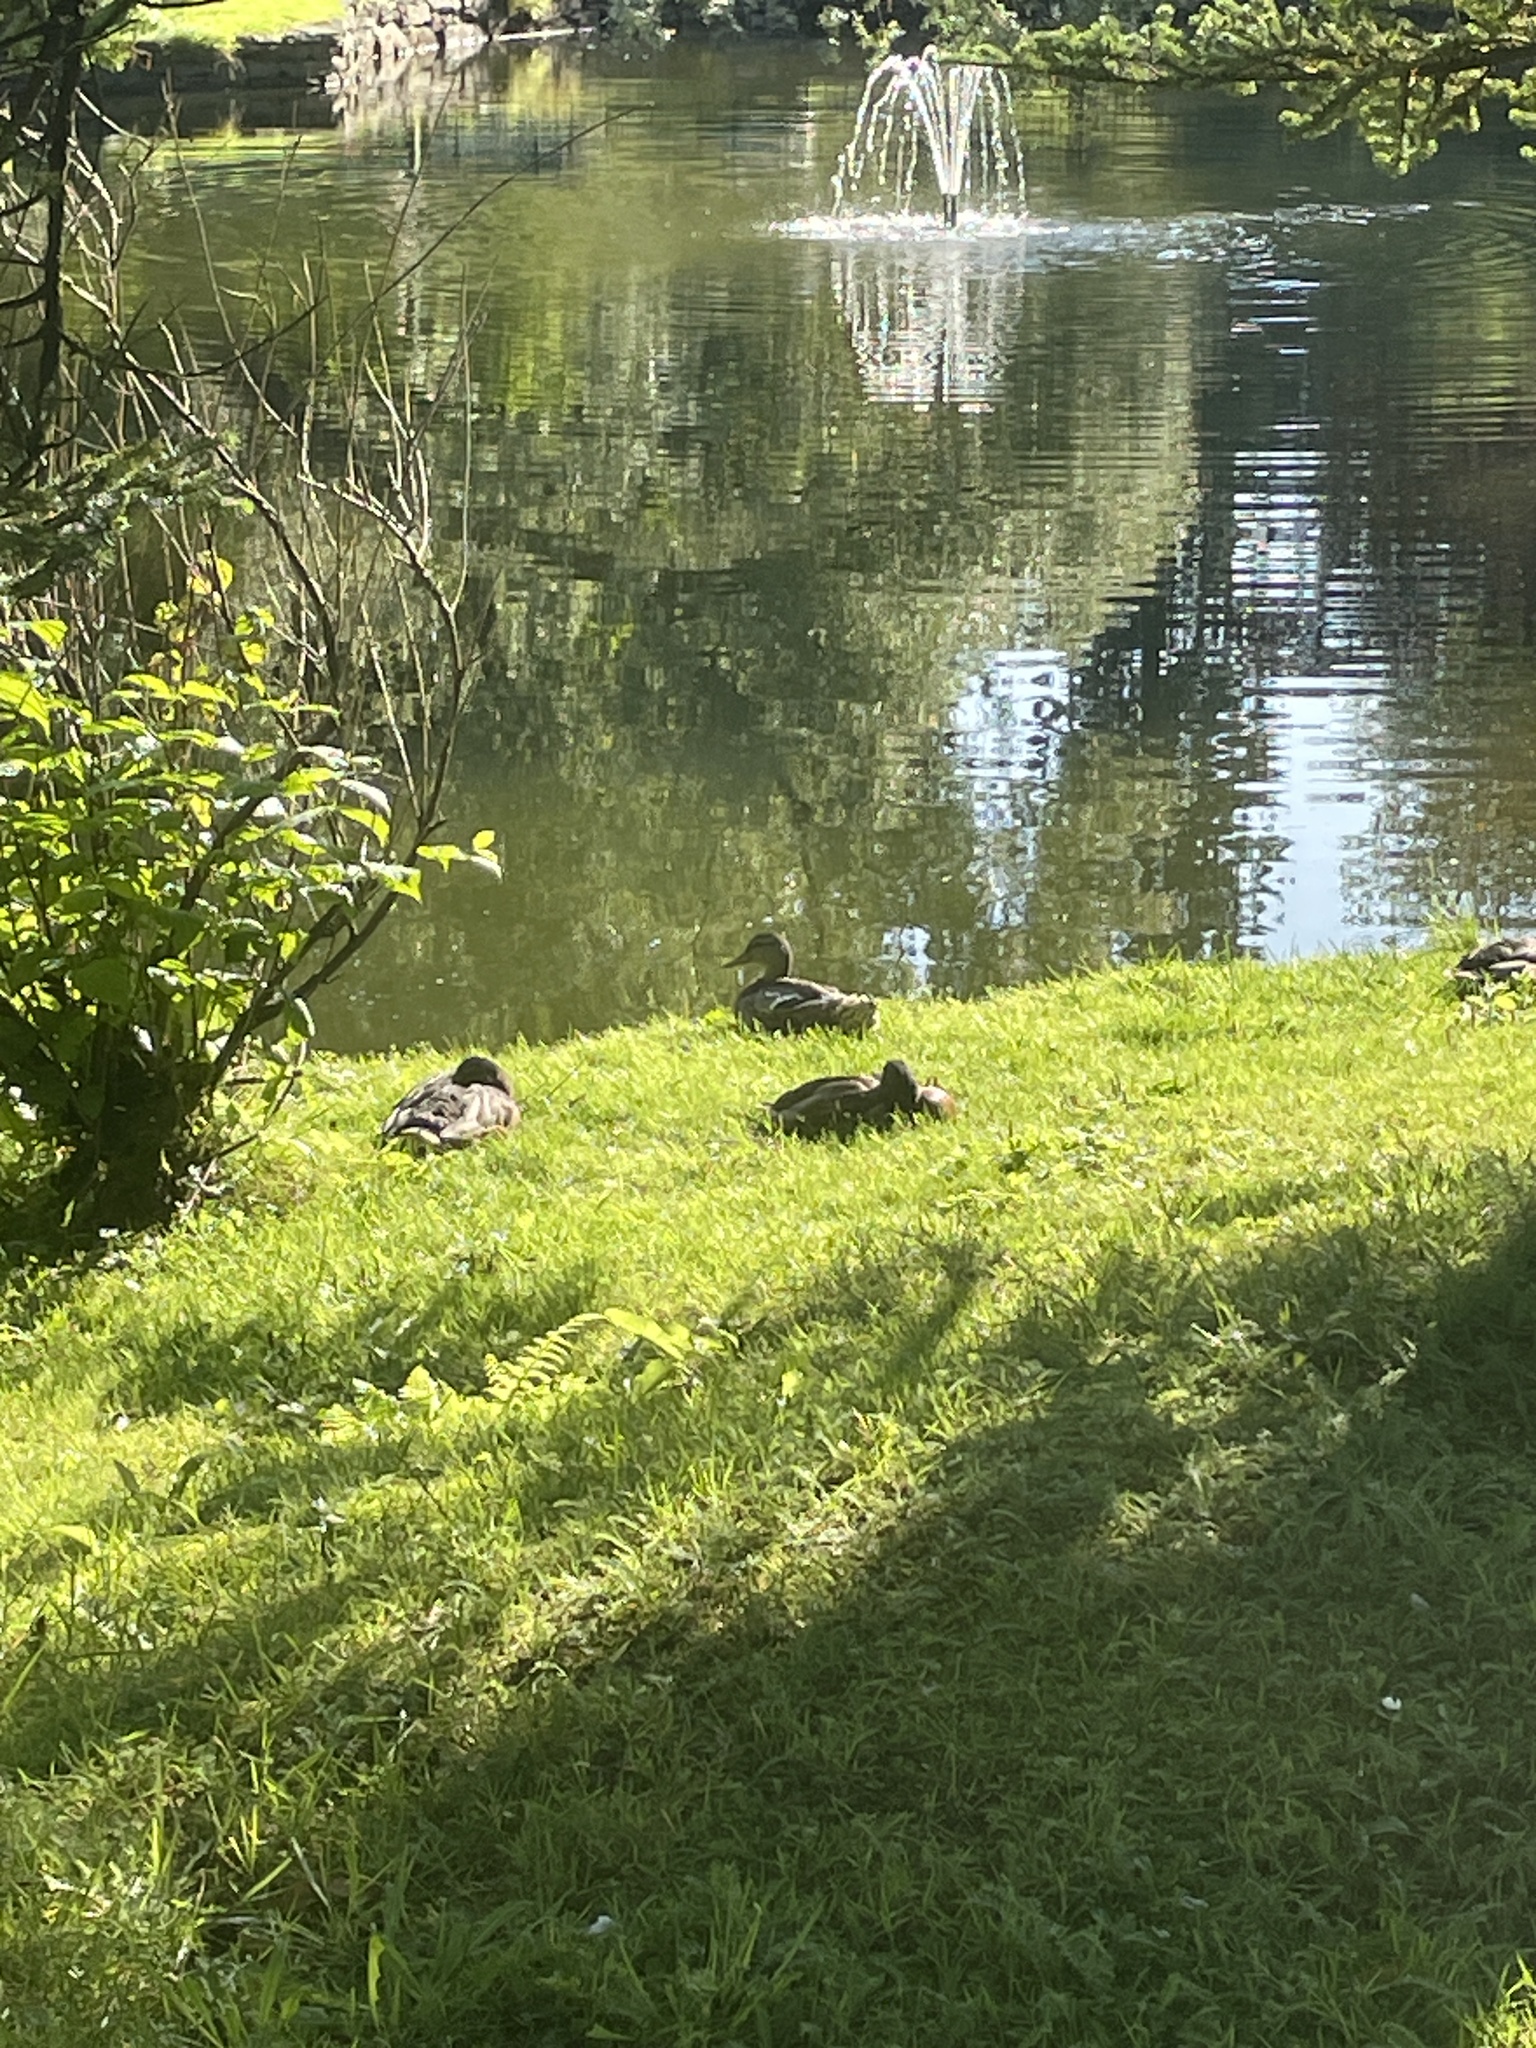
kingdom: Animalia
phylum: Chordata
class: Aves
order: Anseriformes
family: Anatidae
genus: Anas
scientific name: Anas platyrhynchos
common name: Mallard
